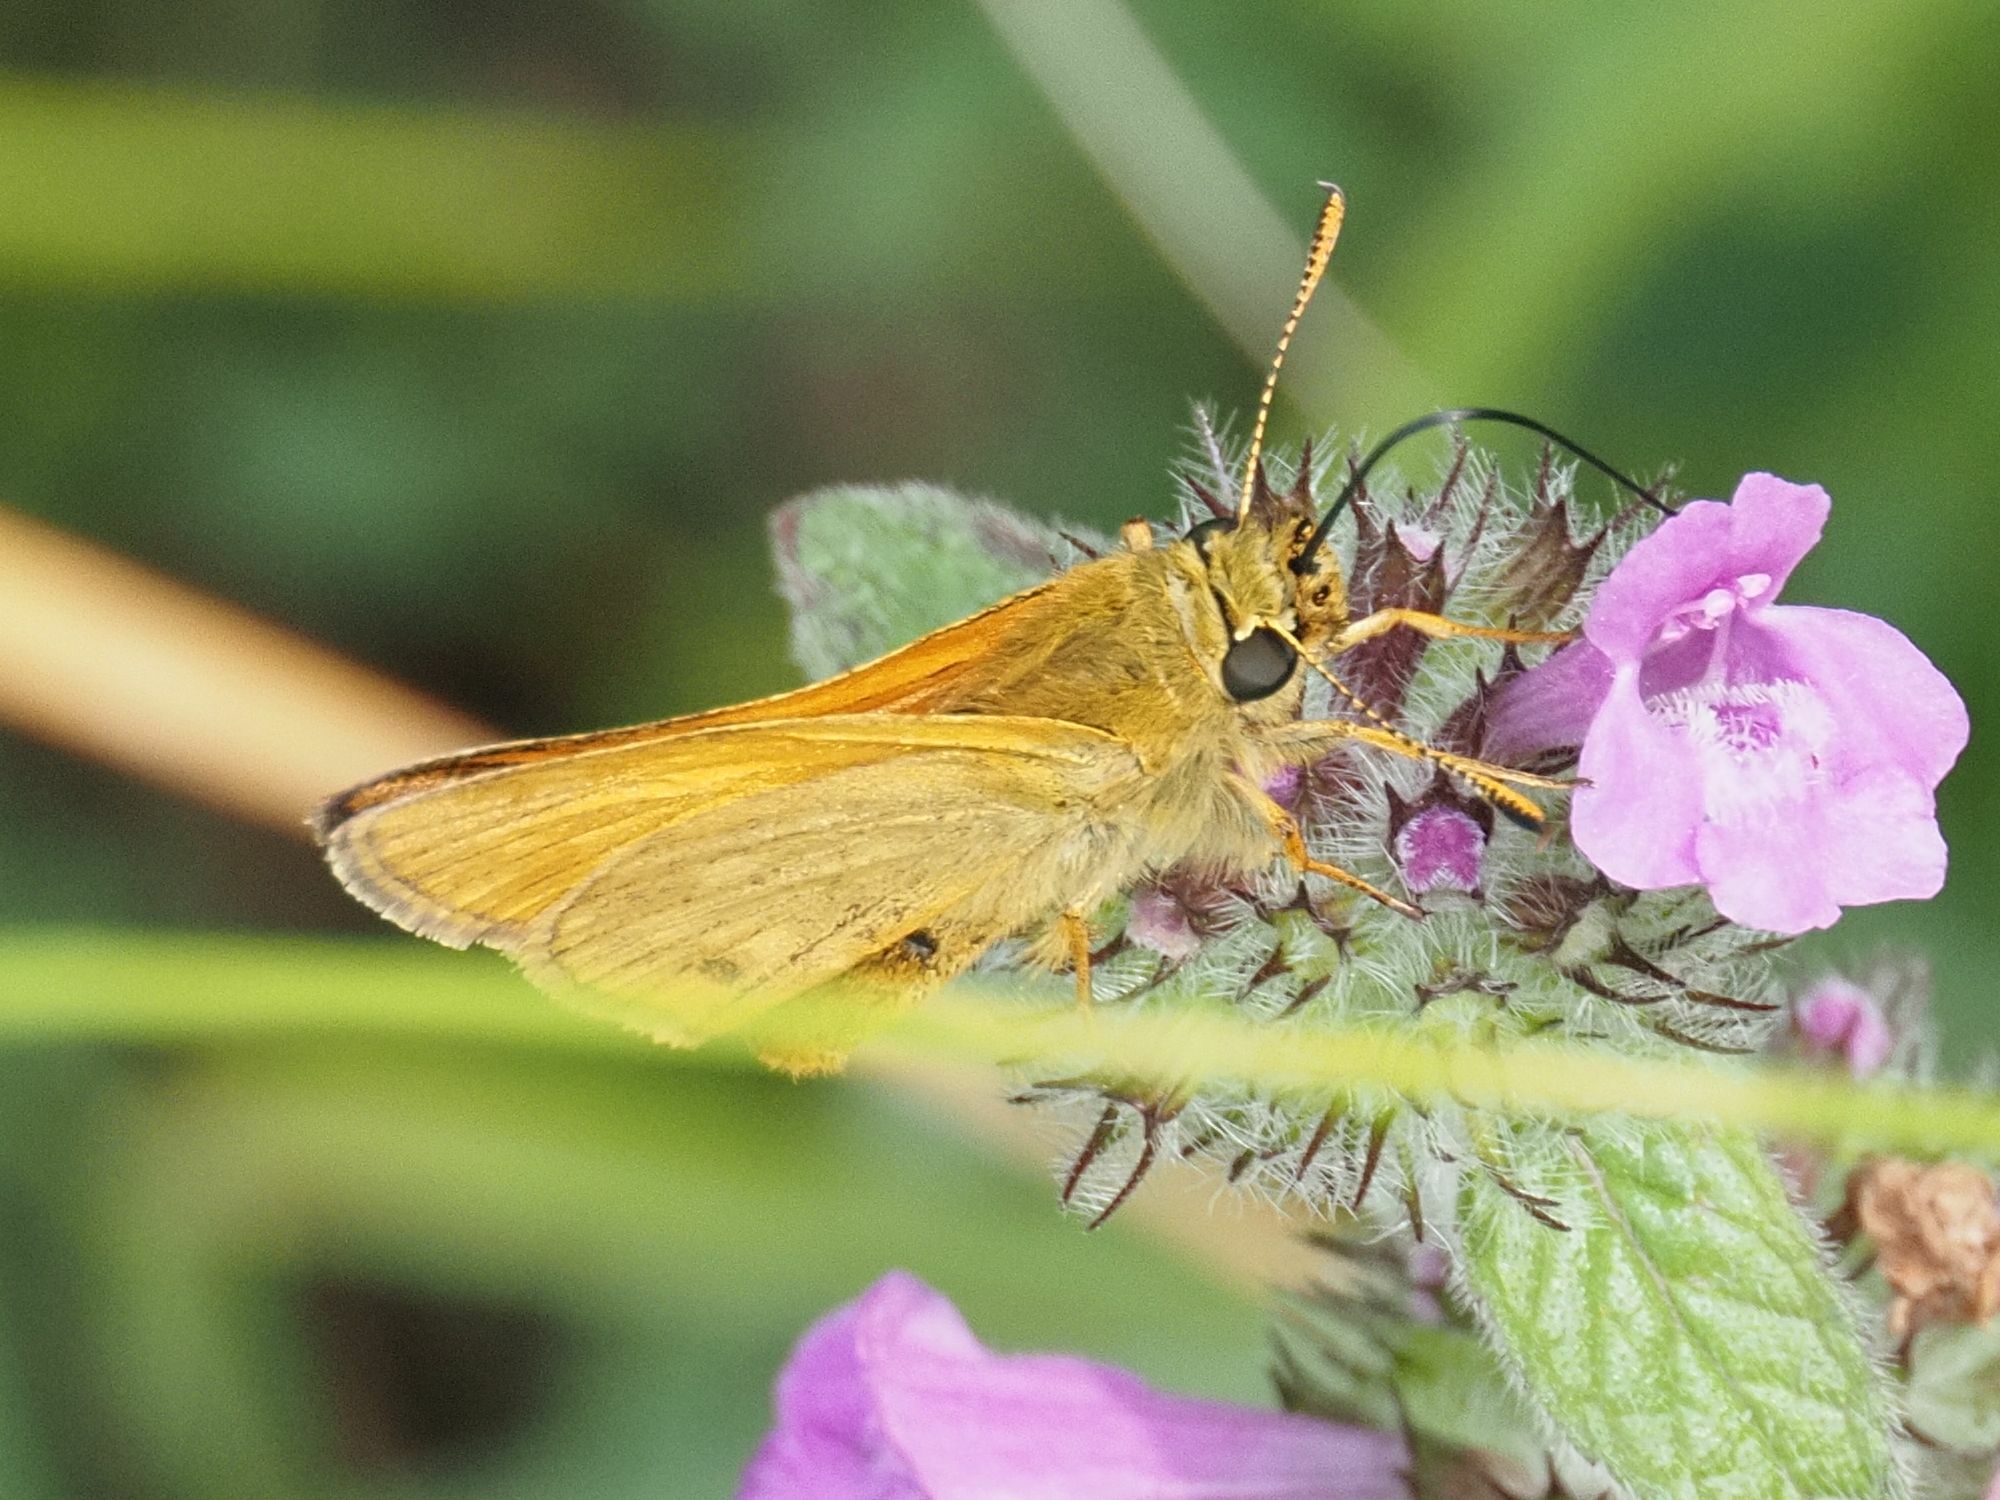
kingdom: Animalia
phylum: Arthropoda
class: Insecta
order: Lepidoptera
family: Hesperiidae
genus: Ochlodes
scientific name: Ochlodes venata
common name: Large skipper
